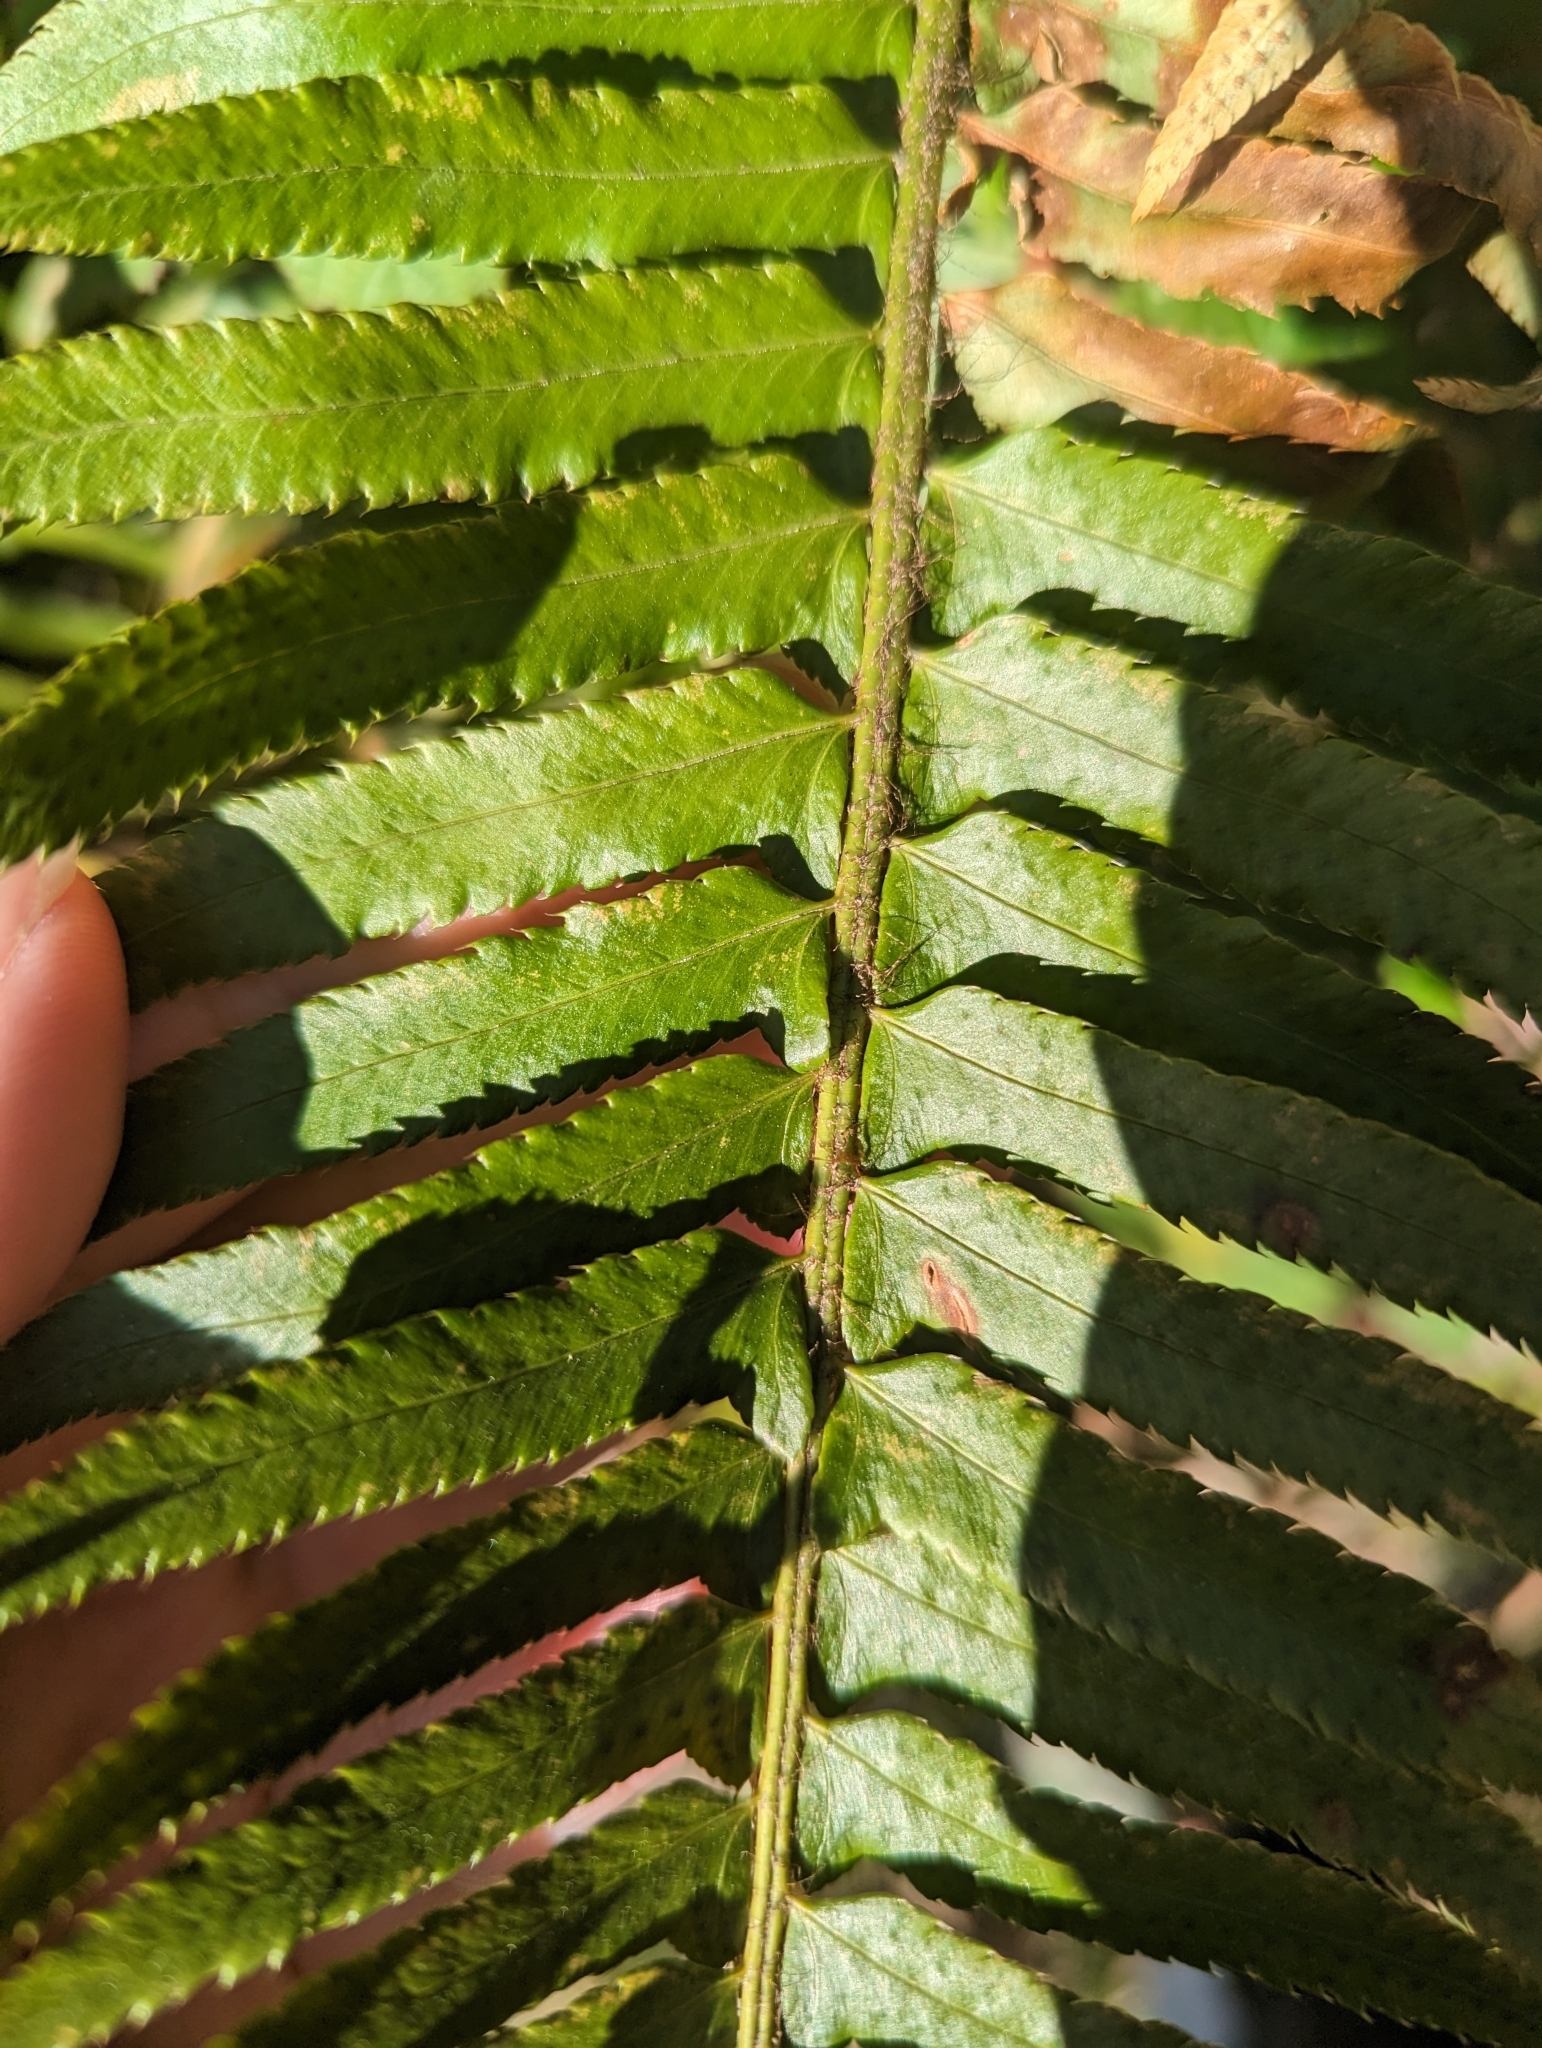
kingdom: Plantae
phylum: Tracheophyta
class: Polypodiopsida
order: Polypodiales
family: Dryopteridaceae
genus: Polystichum
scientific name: Polystichum munitum
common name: Western sword-fern
